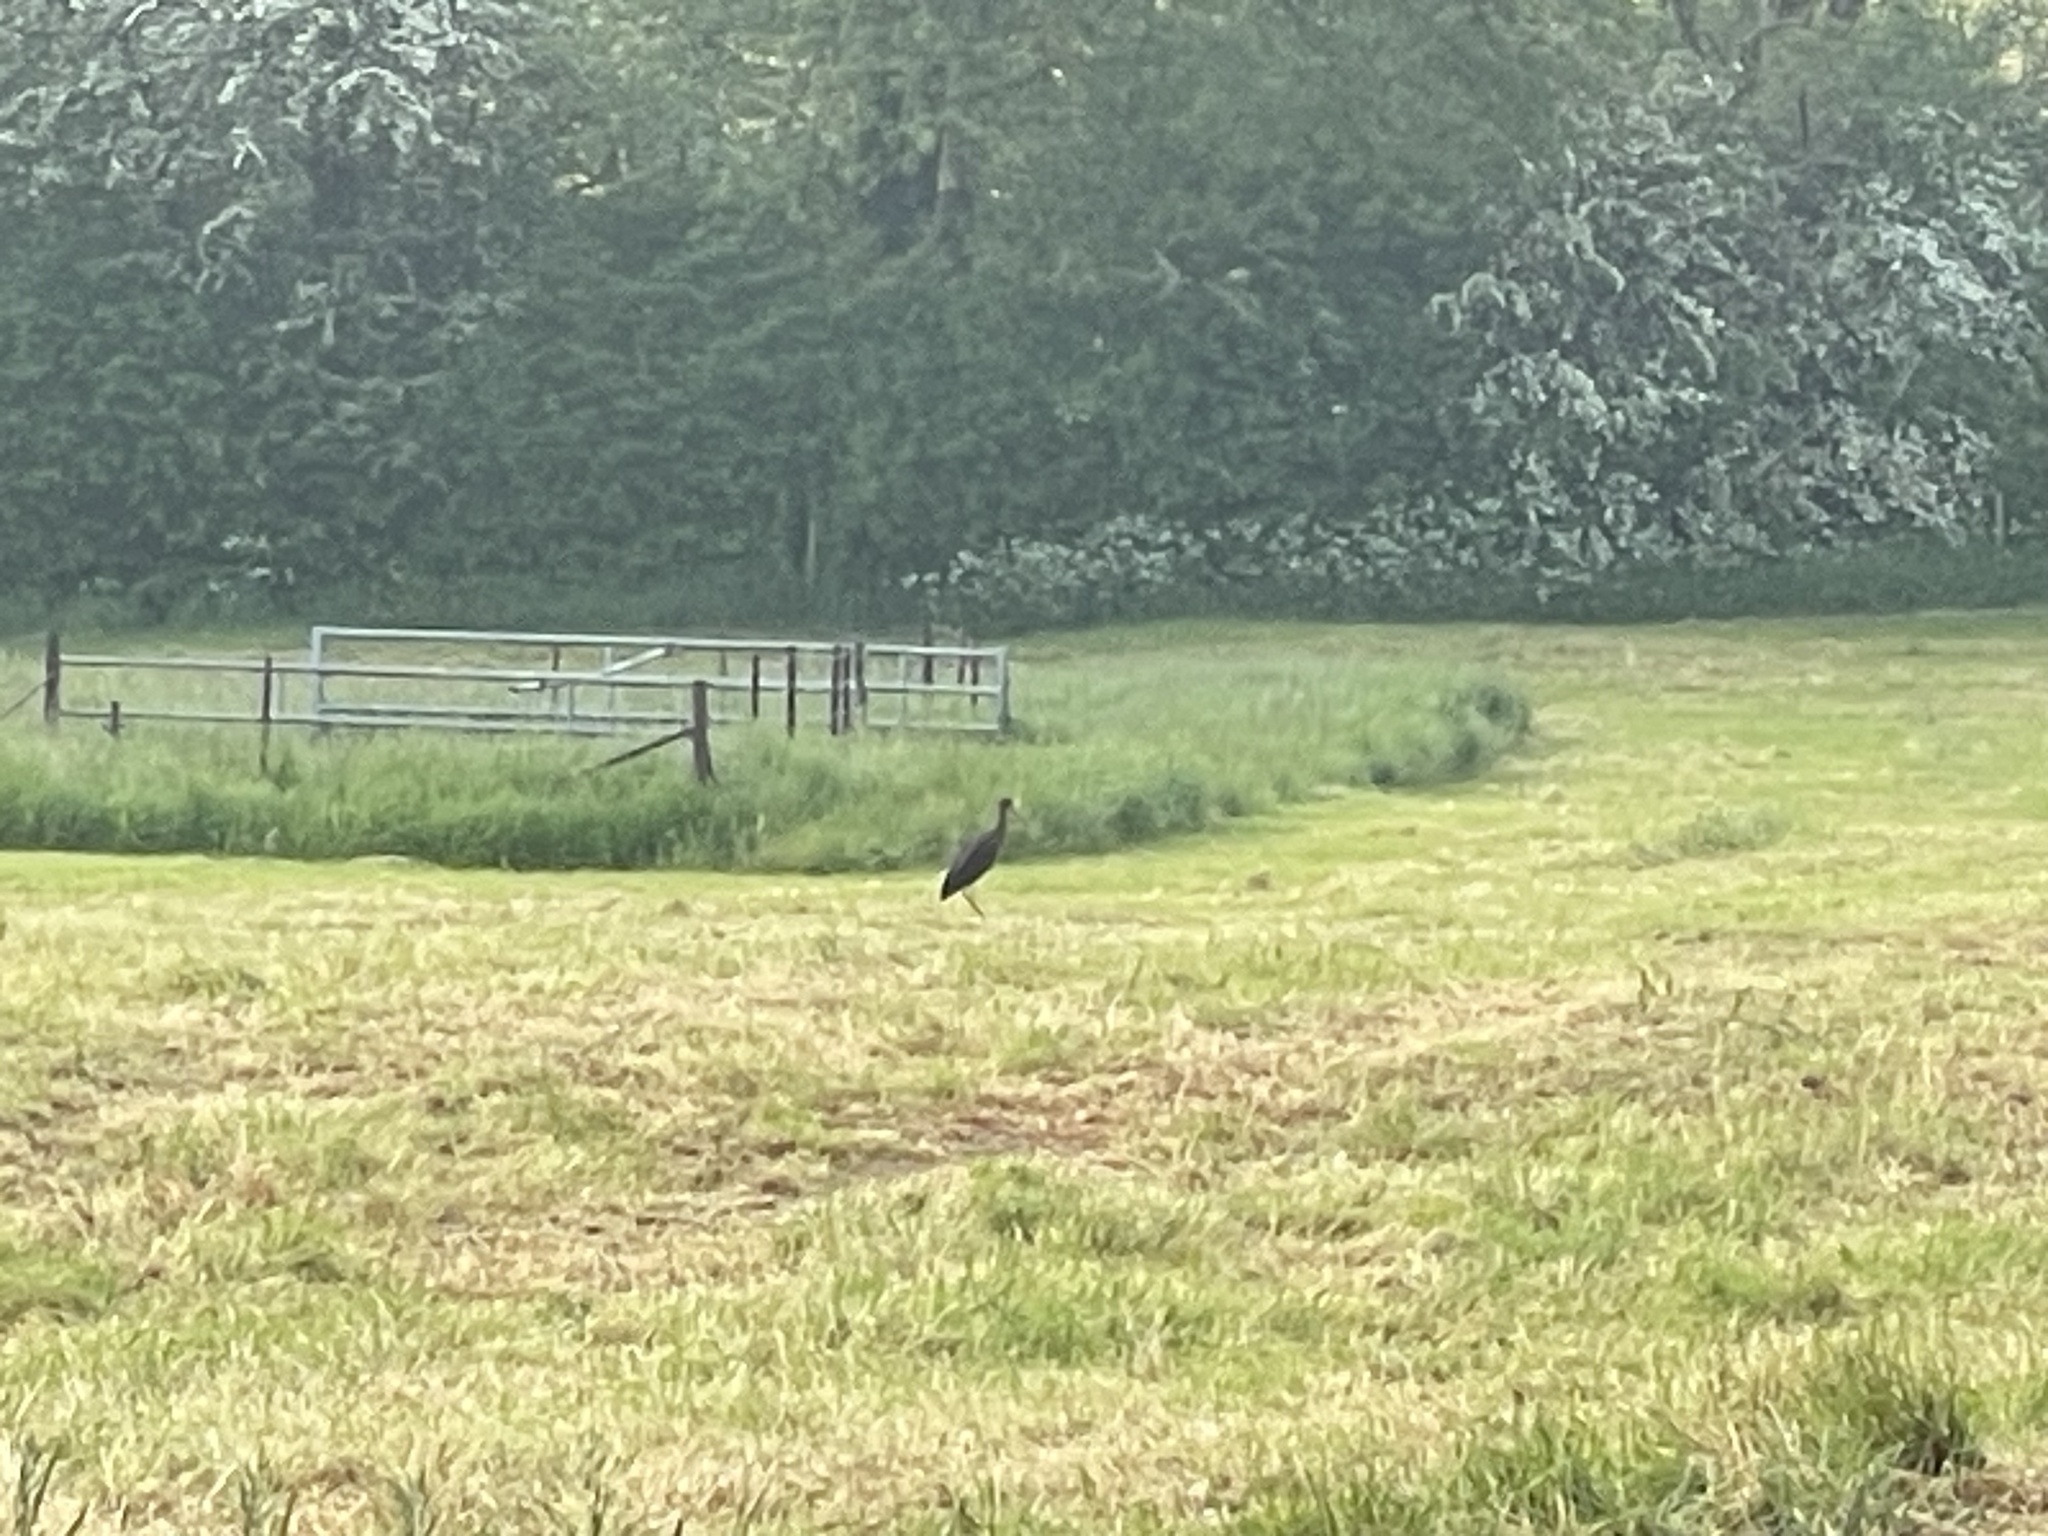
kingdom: Animalia
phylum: Chordata
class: Aves
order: Ciconiiformes
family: Ciconiidae
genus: Ciconia
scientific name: Ciconia nigra
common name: Black stork
